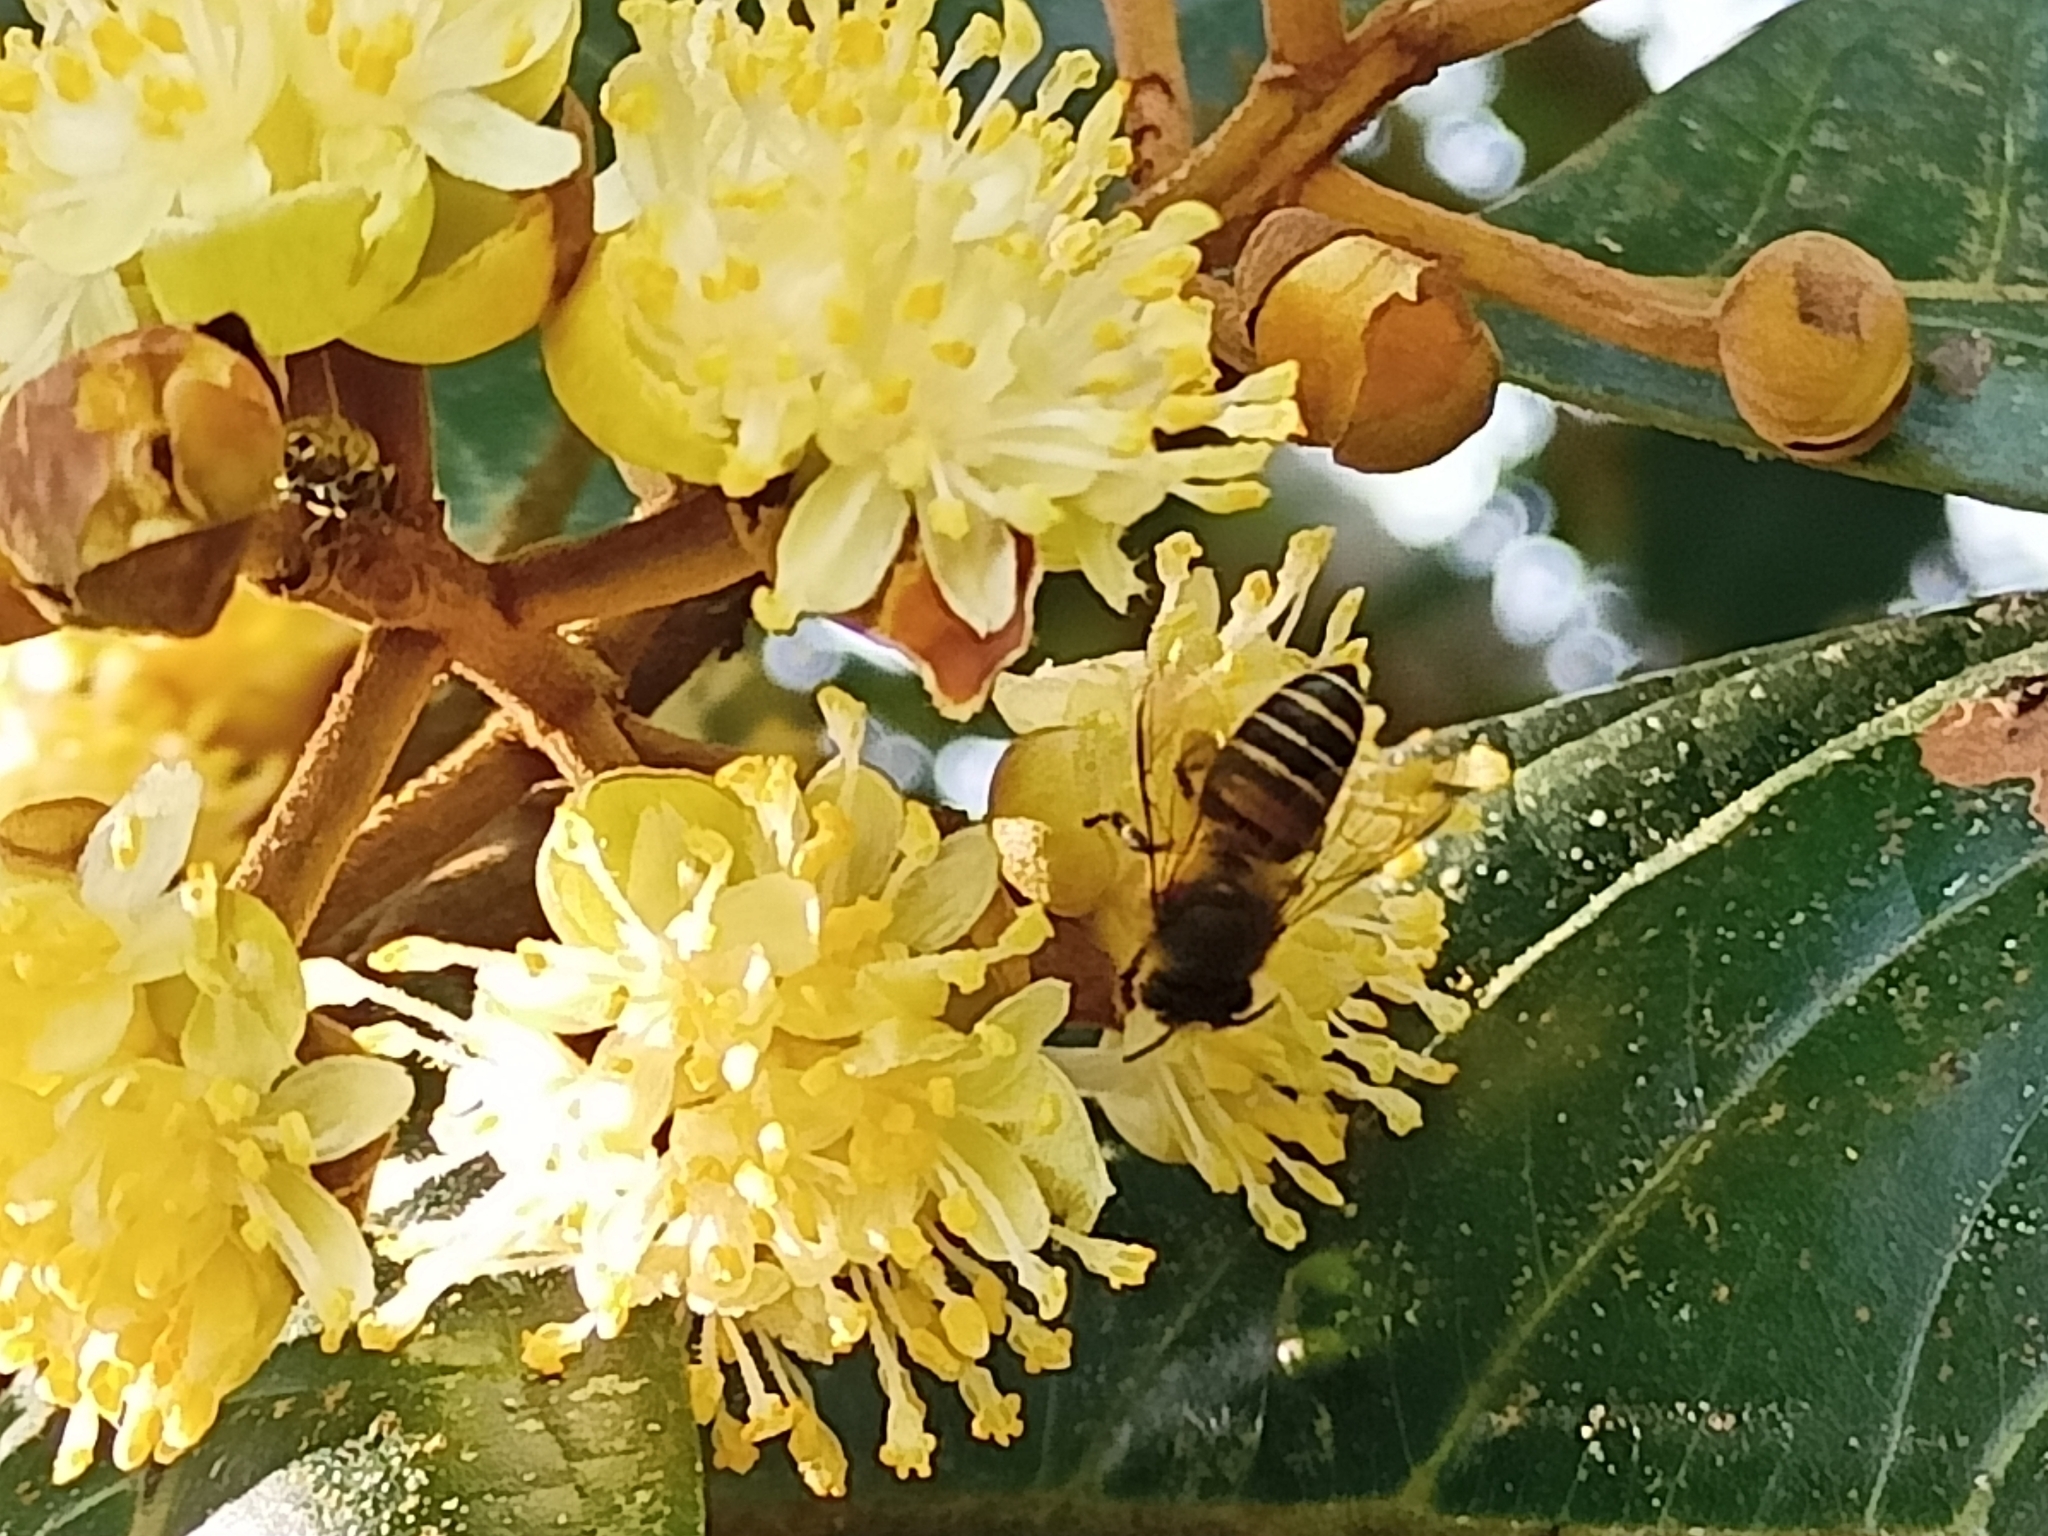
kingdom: Animalia
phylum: Arthropoda
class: Insecta
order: Hymenoptera
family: Apidae
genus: Apis
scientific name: Apis cerana
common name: Honey bee
